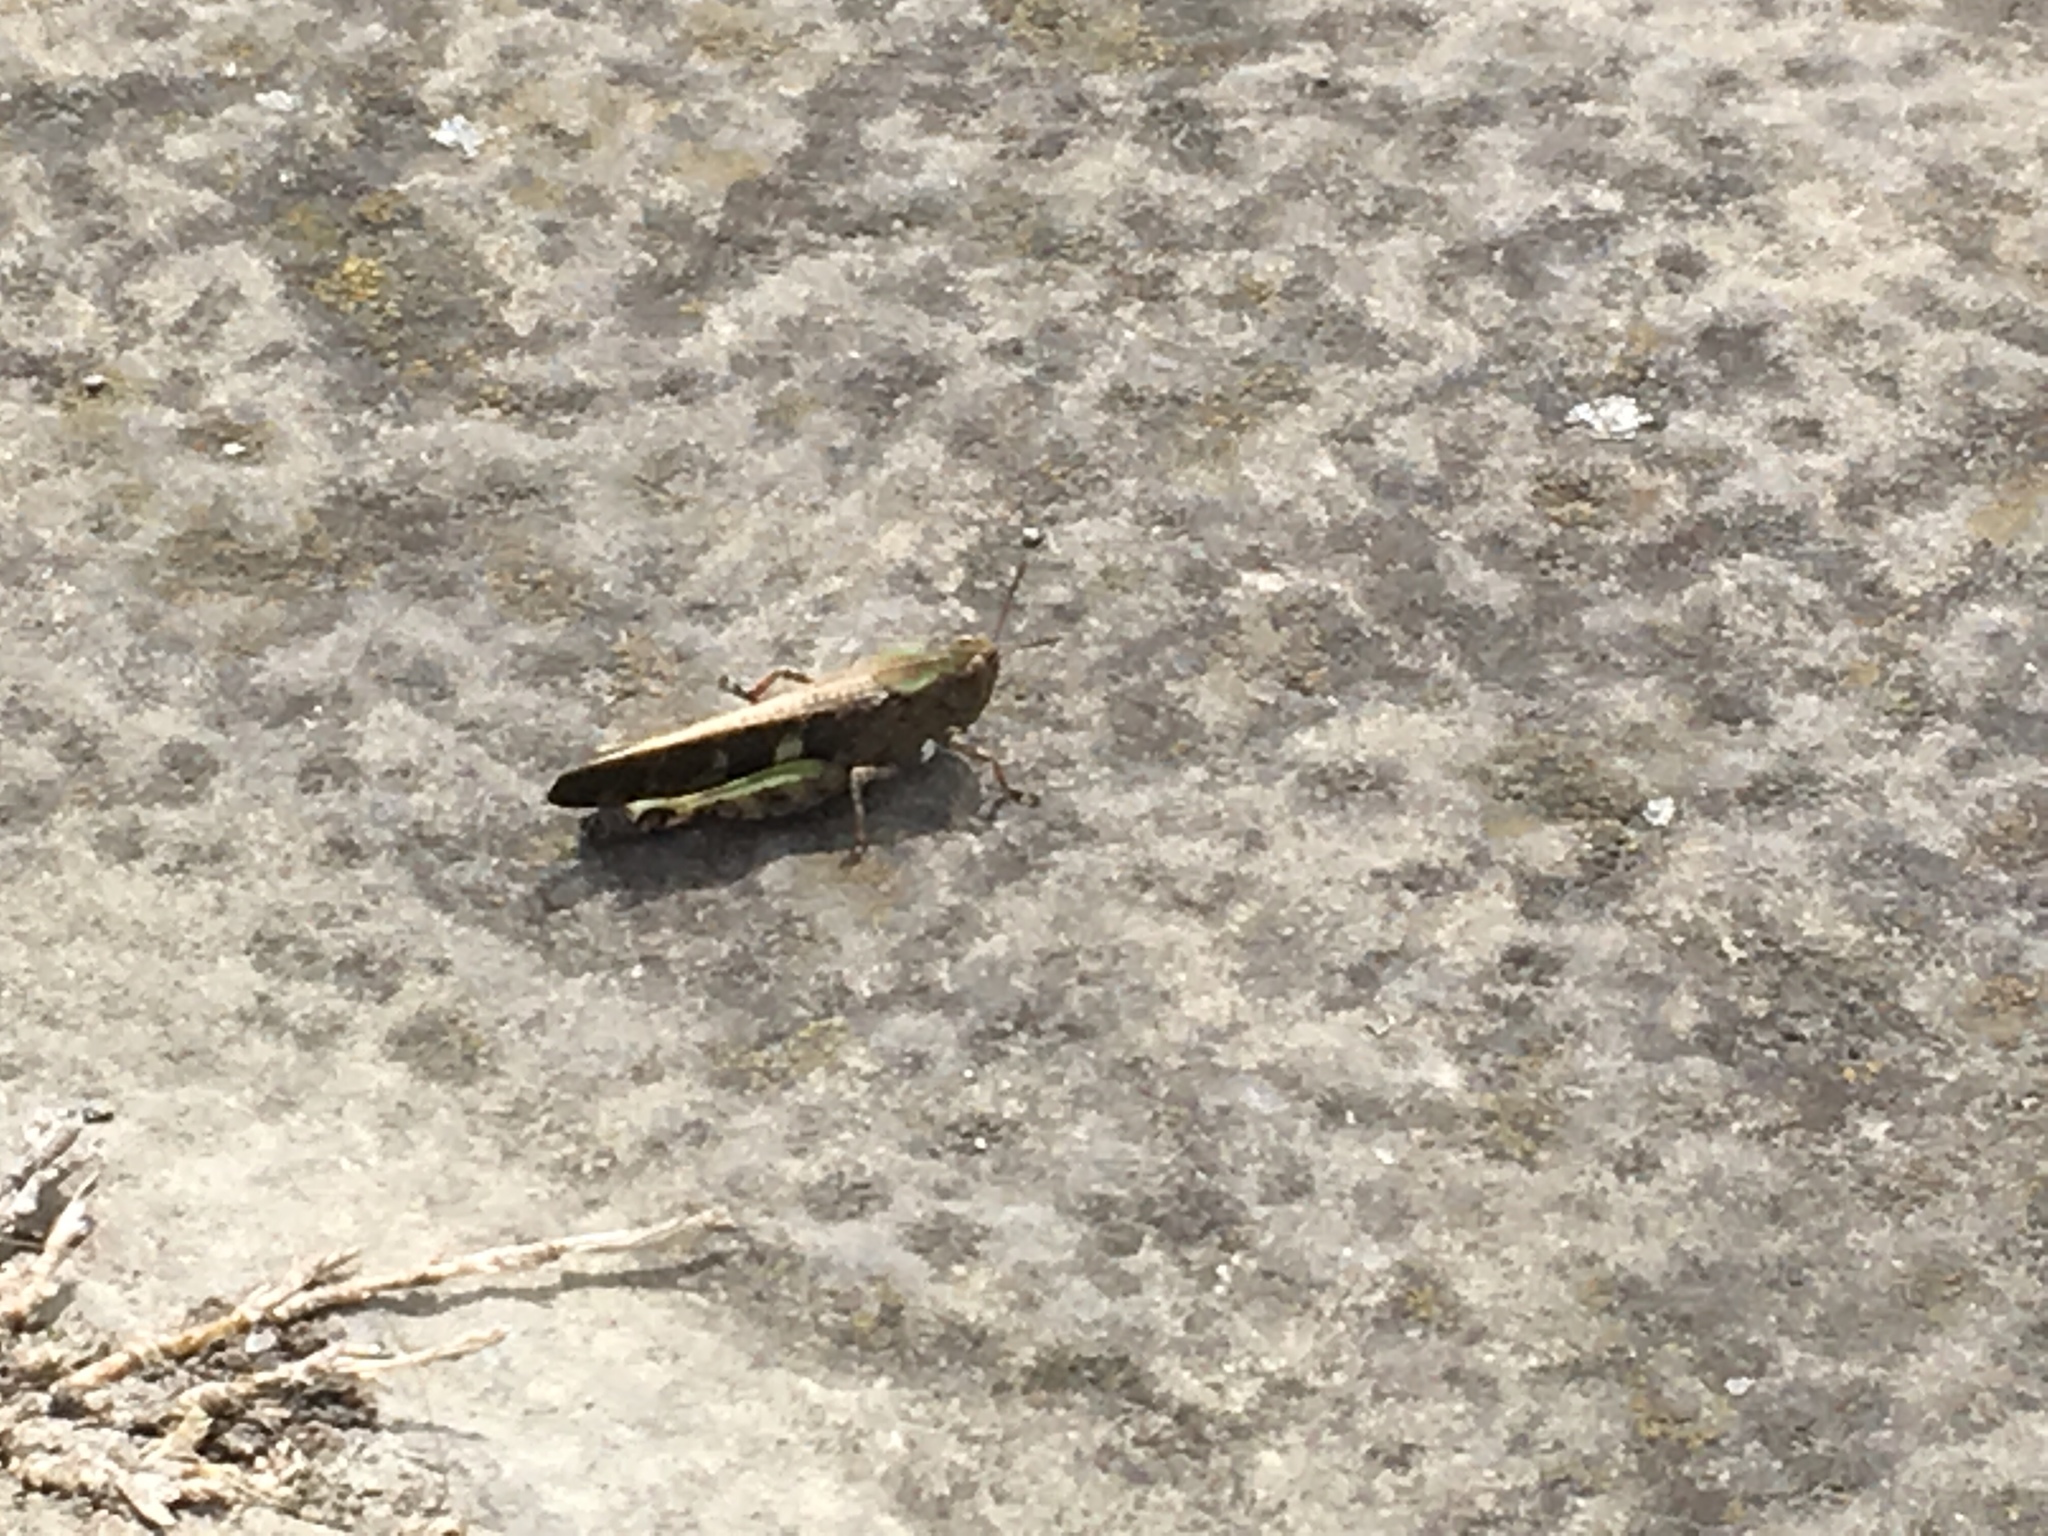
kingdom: Animalia
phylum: Arthropoda
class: Insecta
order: Orthoptera
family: Acrididae
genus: Aiolopus
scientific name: Aiolopus strepens
